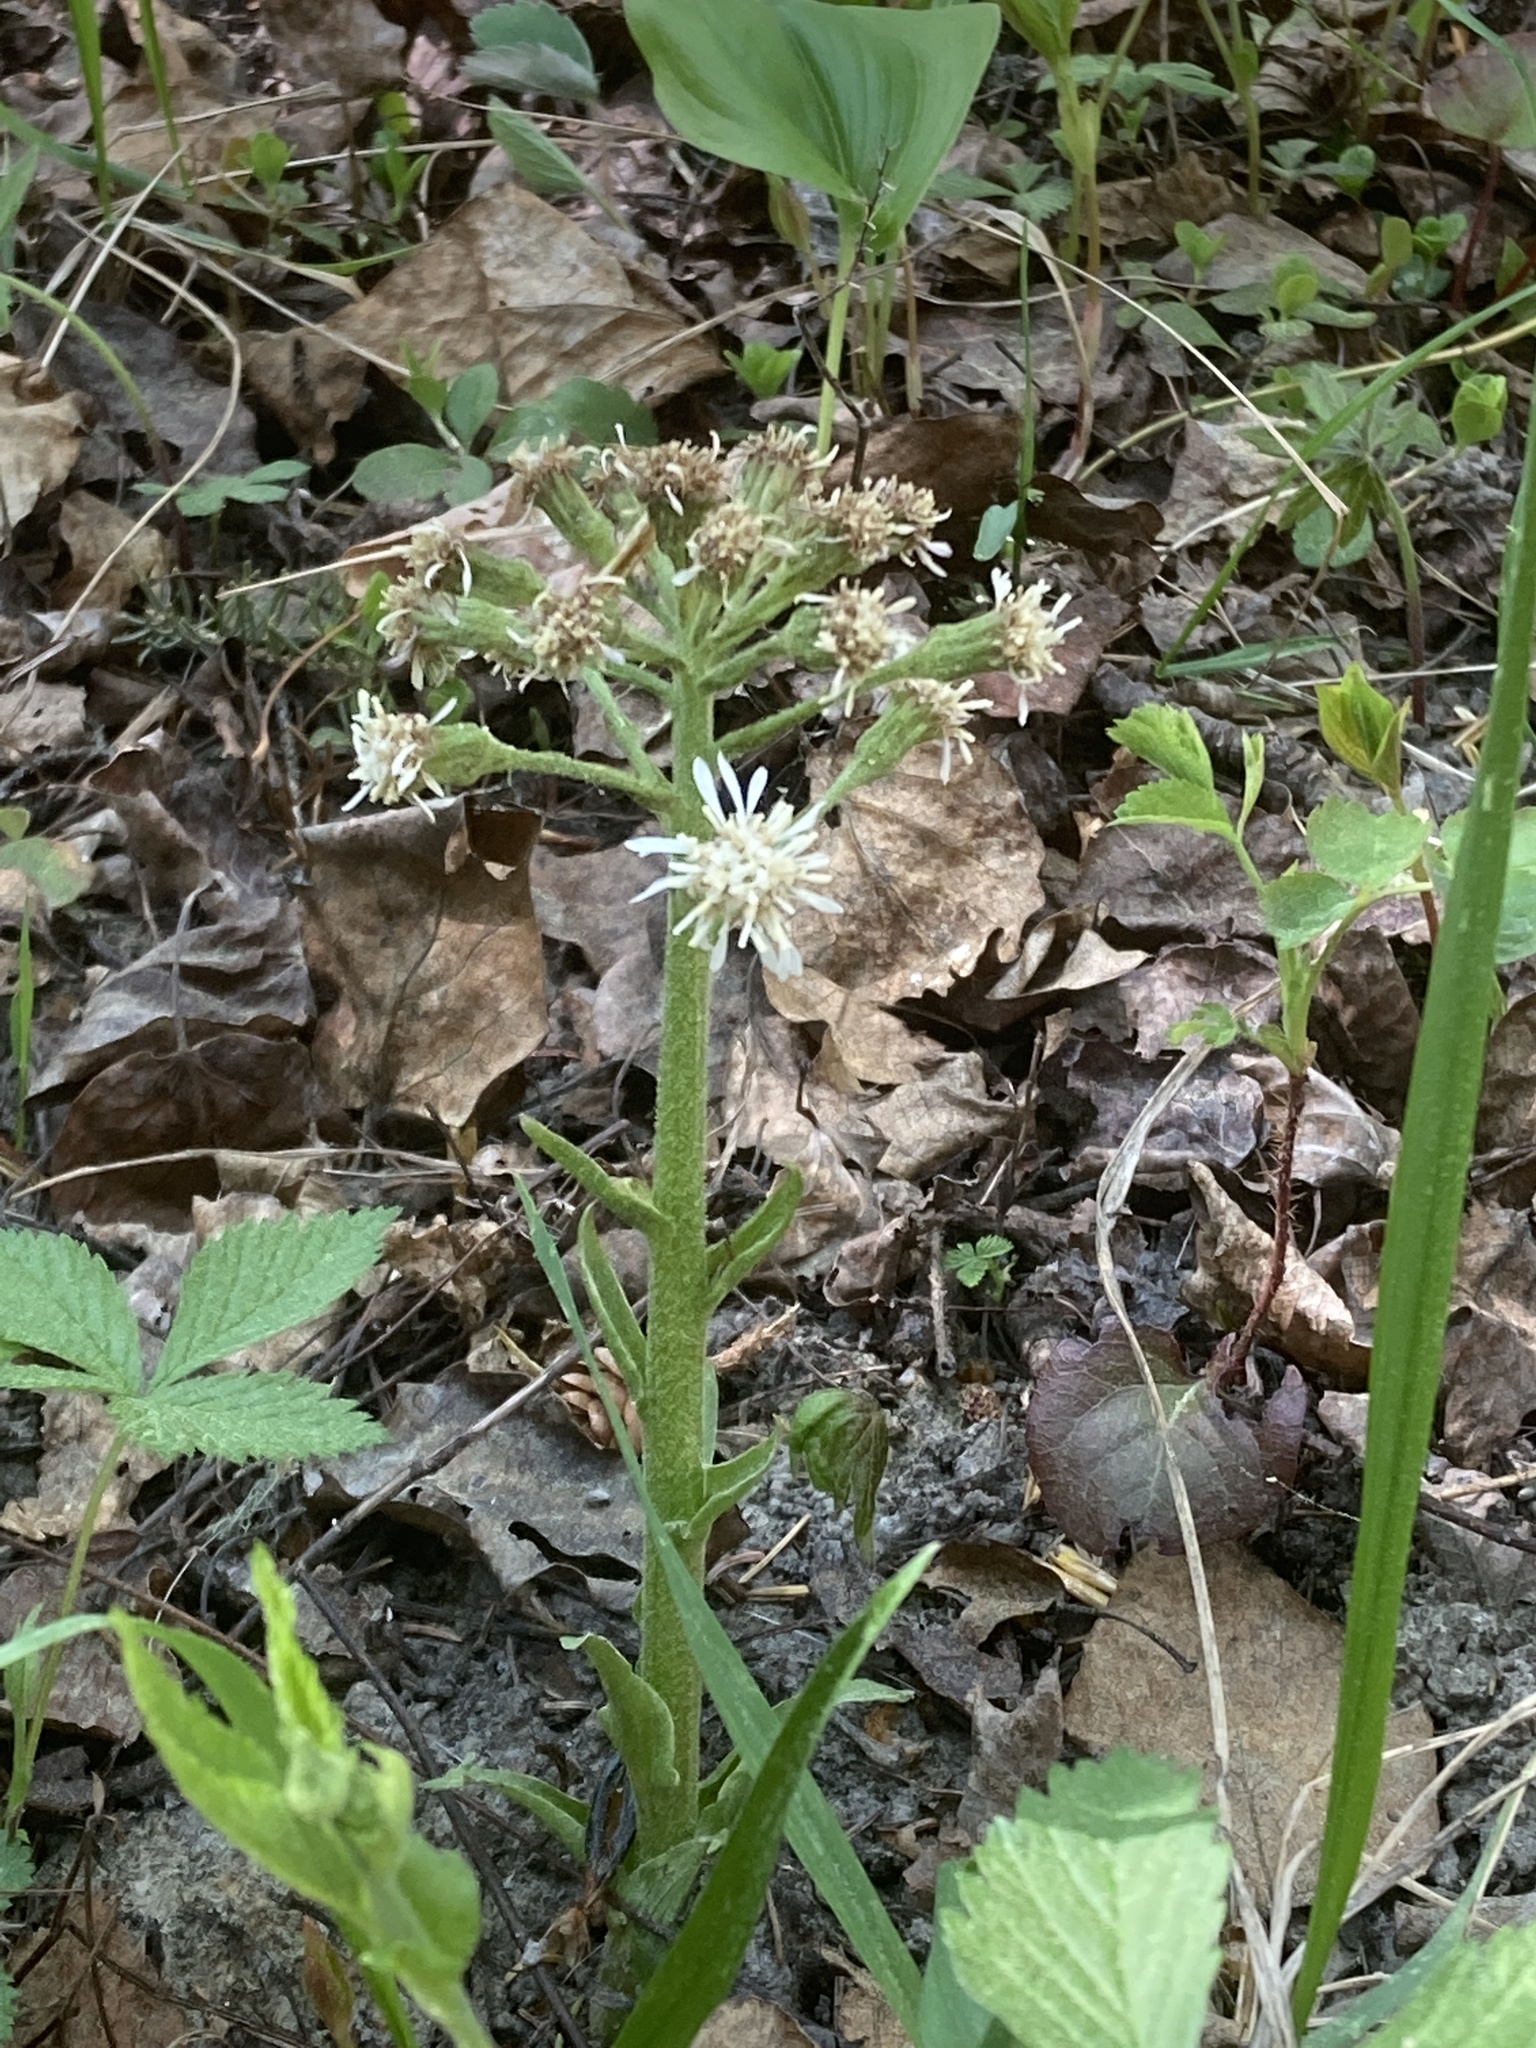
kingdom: Plantae
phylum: Tracheophyta
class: Magnoliopsida
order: Asterales
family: Asteraceae
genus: Petasites
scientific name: Petasites frigidus
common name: Arctic butterbur
